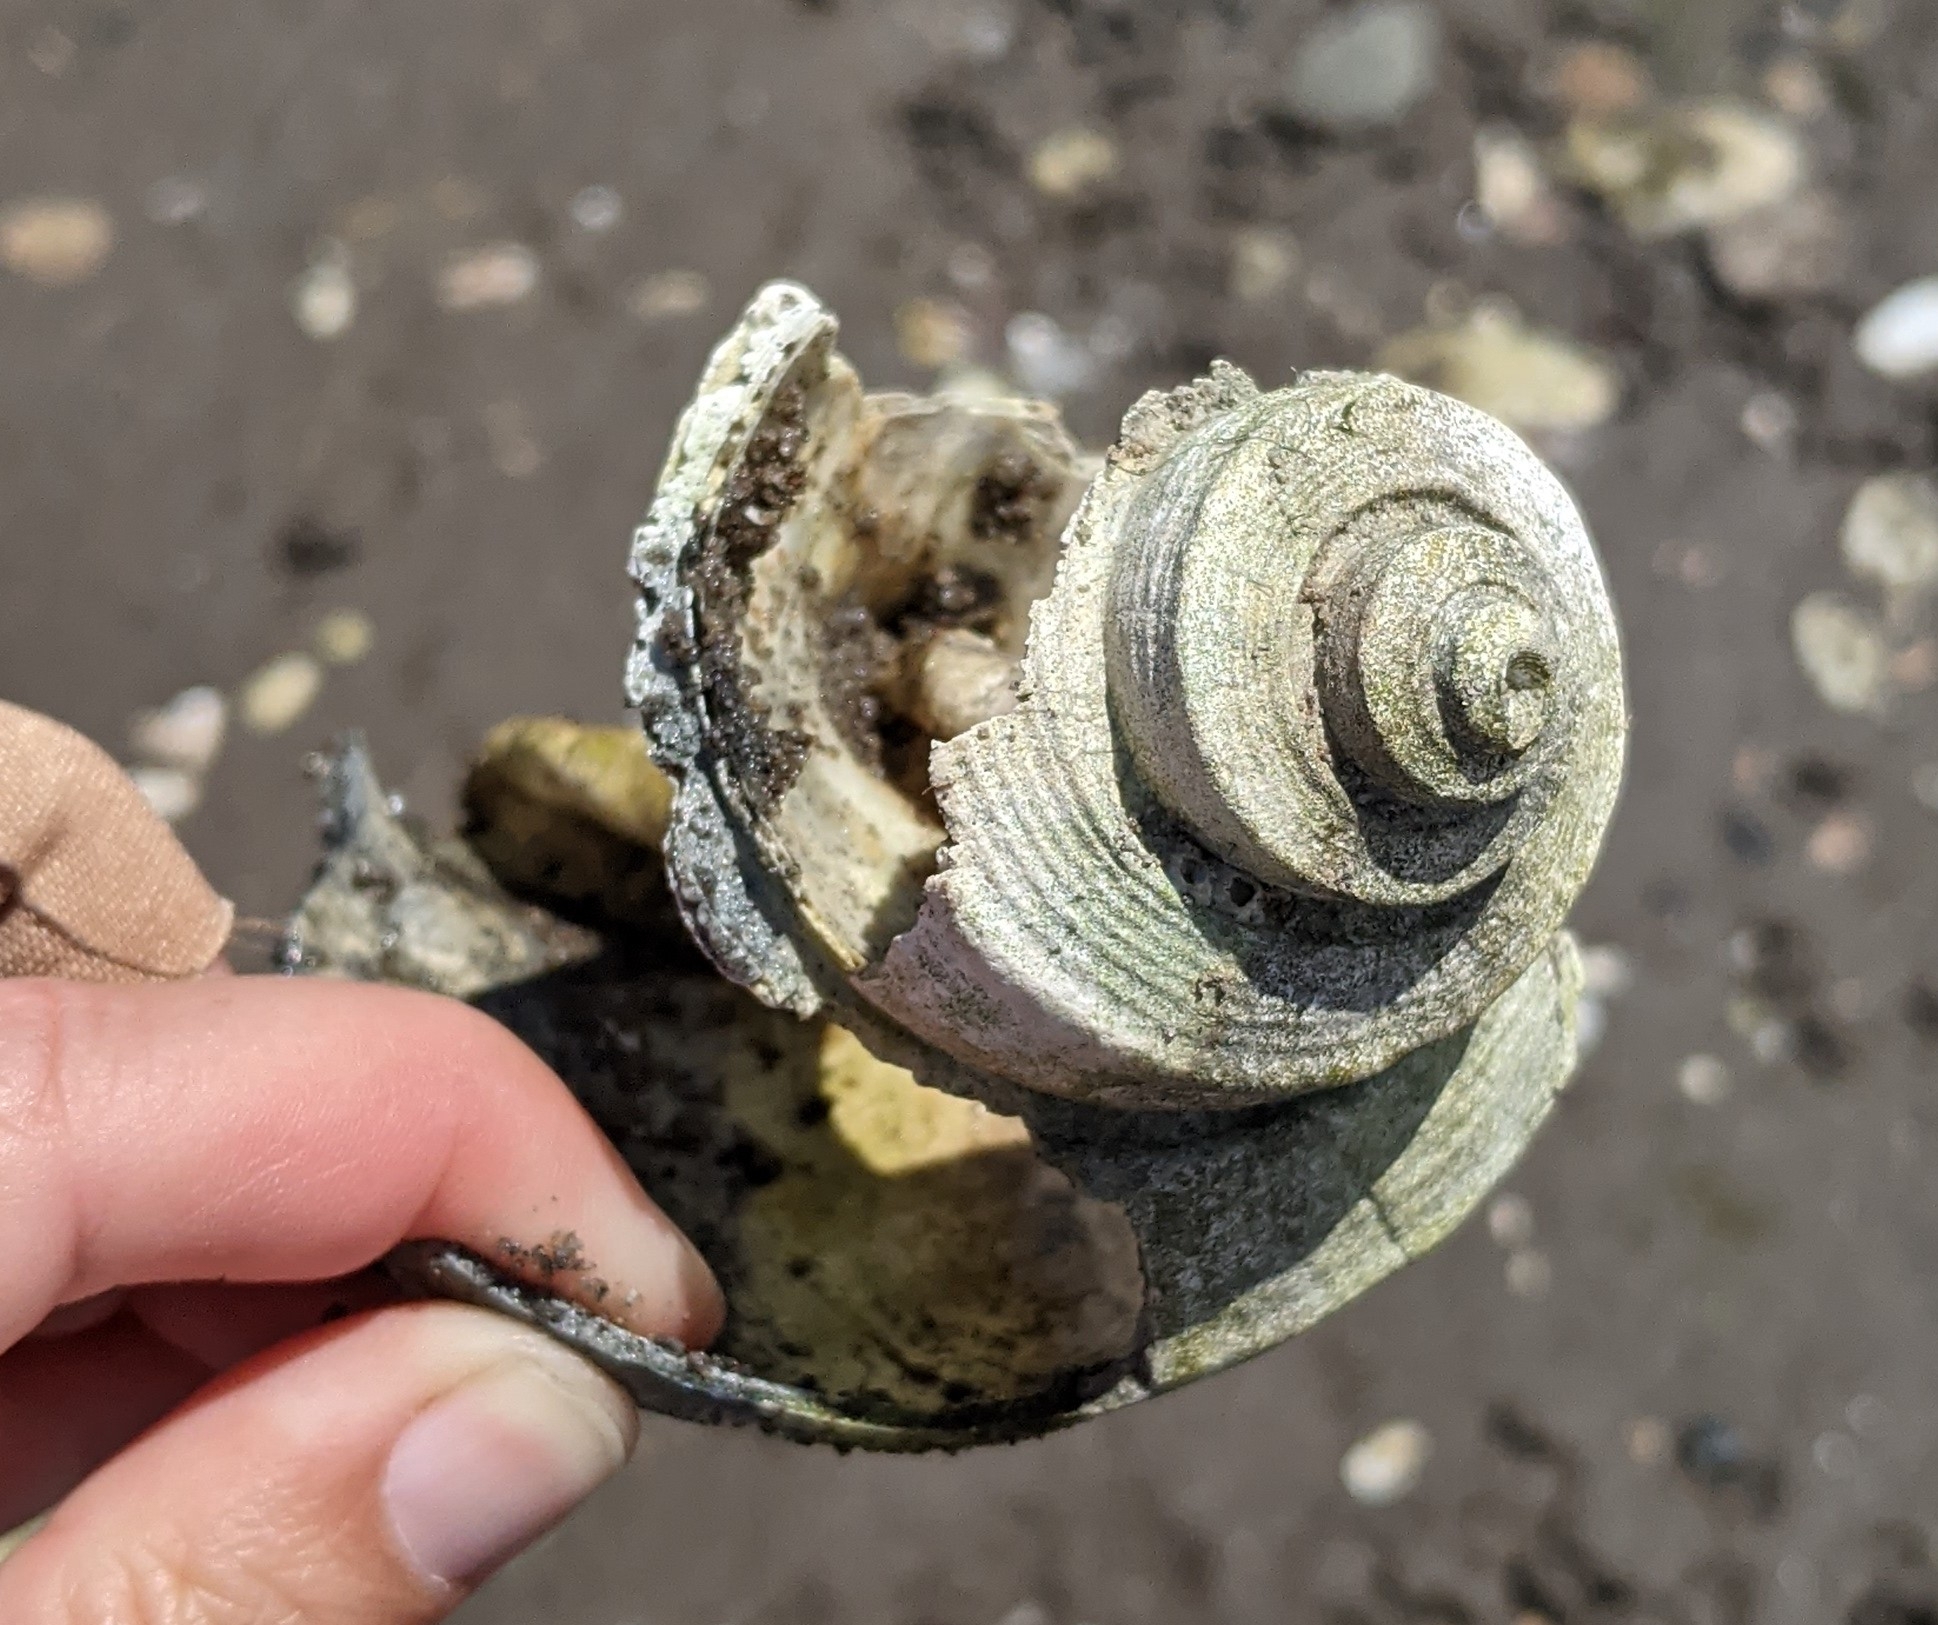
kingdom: Animalia
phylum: Mollusca
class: Gastropoda
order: Neogastropoda
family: Busyconidae
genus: Busycotypus
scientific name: Busycotypus canaliculatus
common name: Channeled whelk
